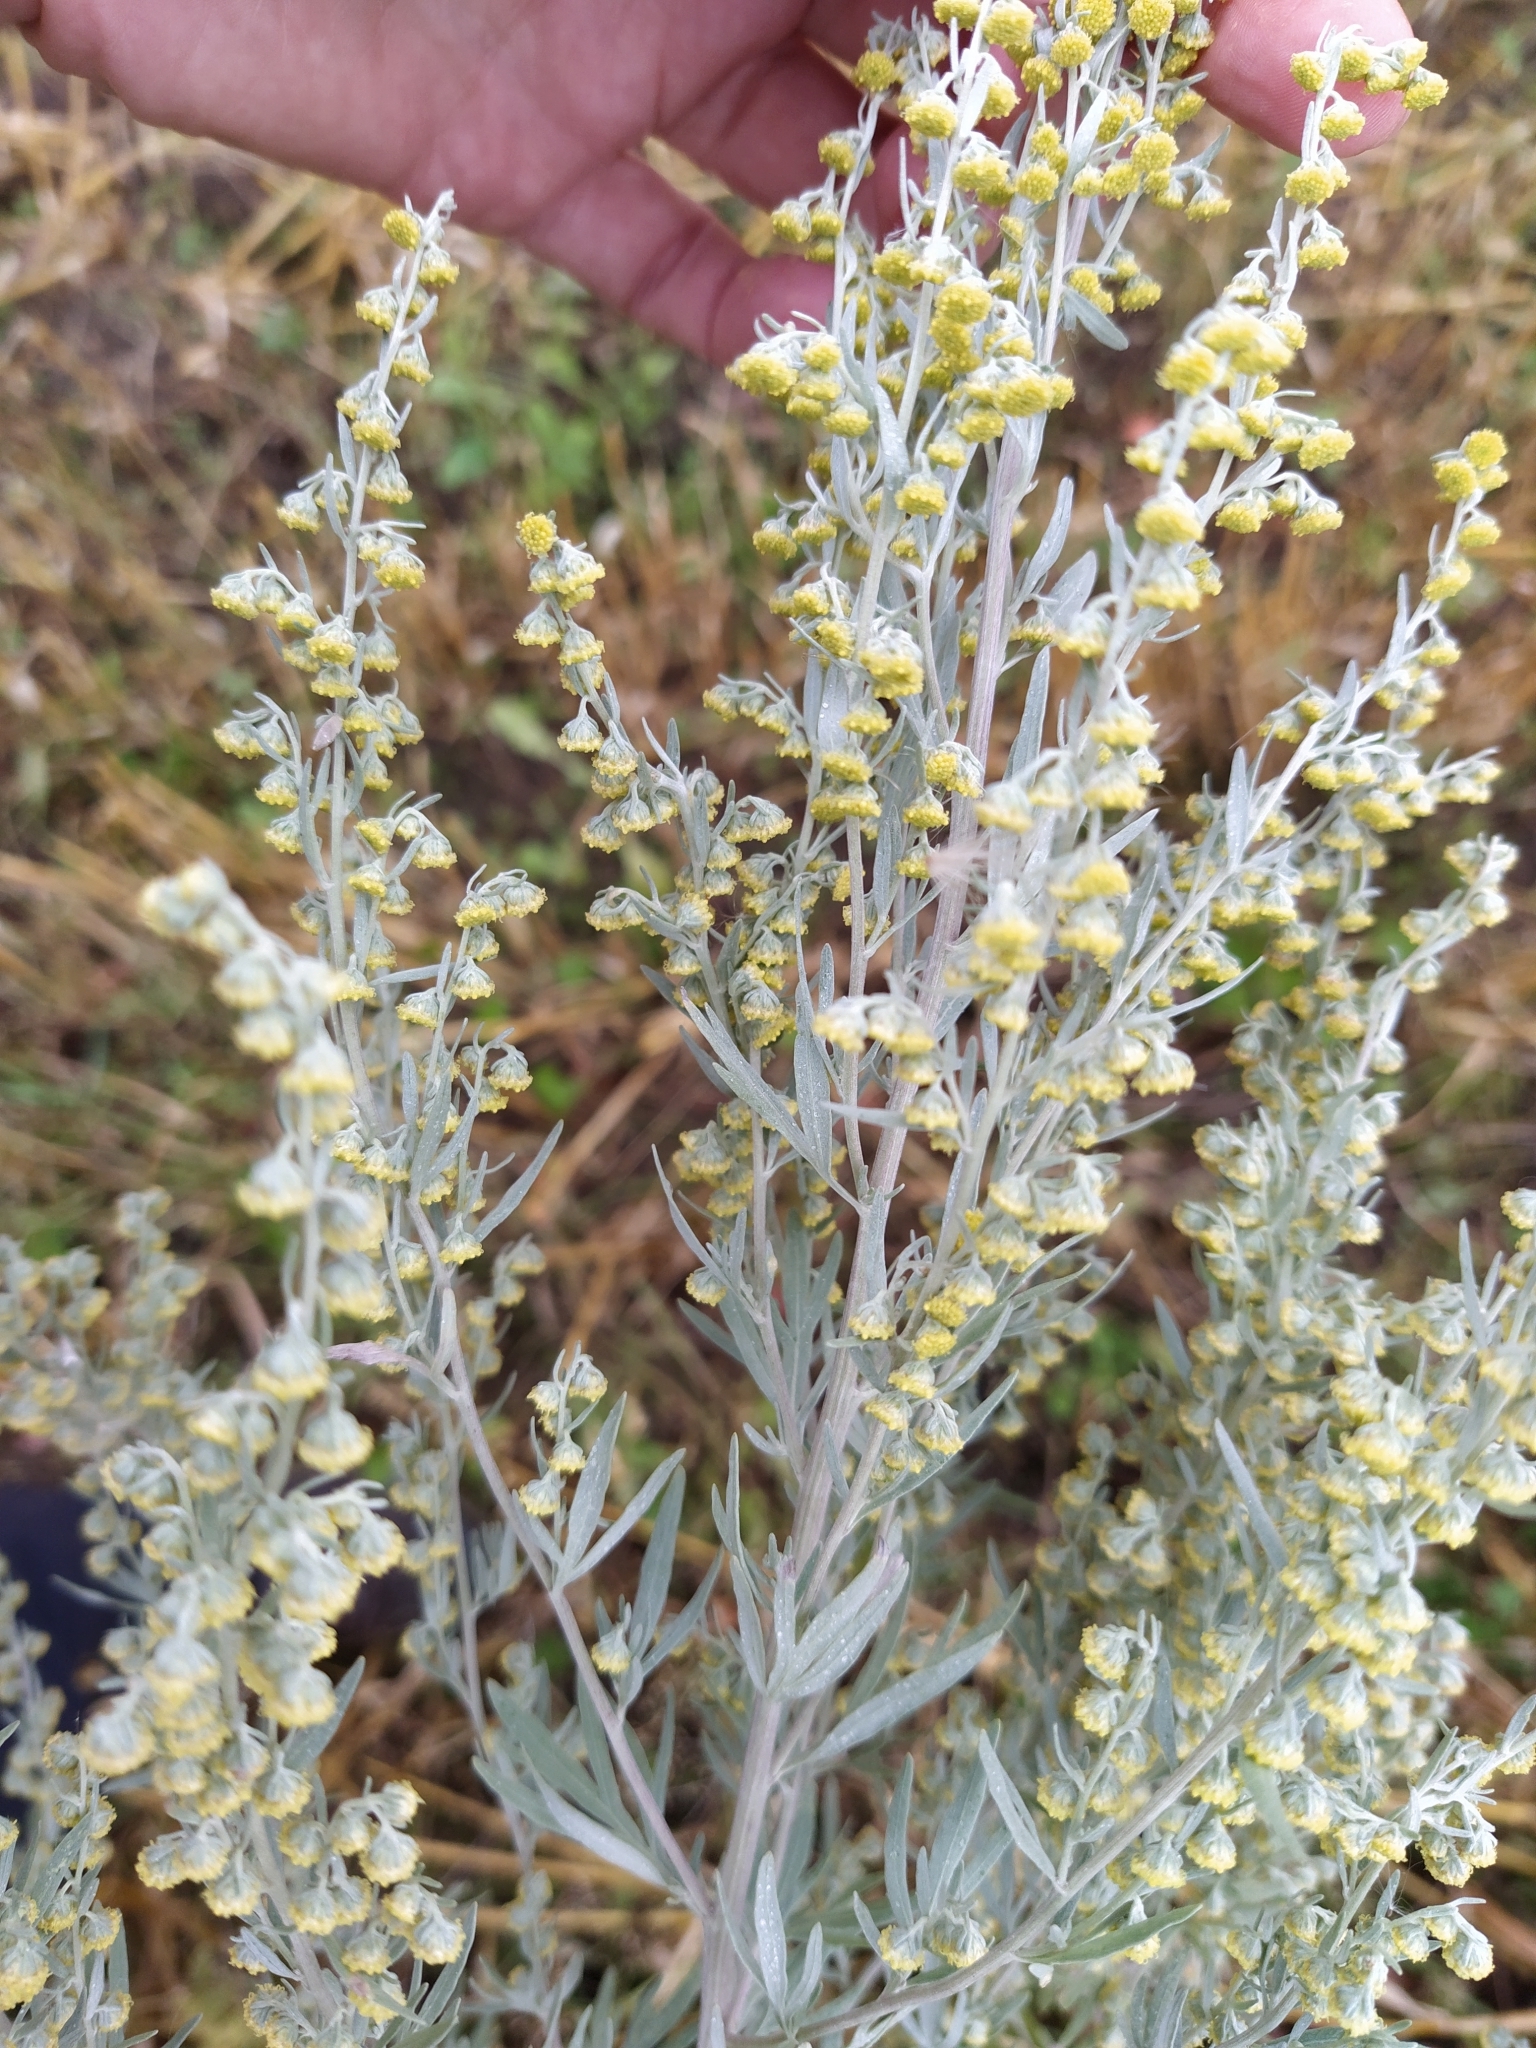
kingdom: Plantae
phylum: Tracheophyta
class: Magnoliopsida
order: Asterales
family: Asteraceae
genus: Artemisia
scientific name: Artemisia absinthium
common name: Wormwood
